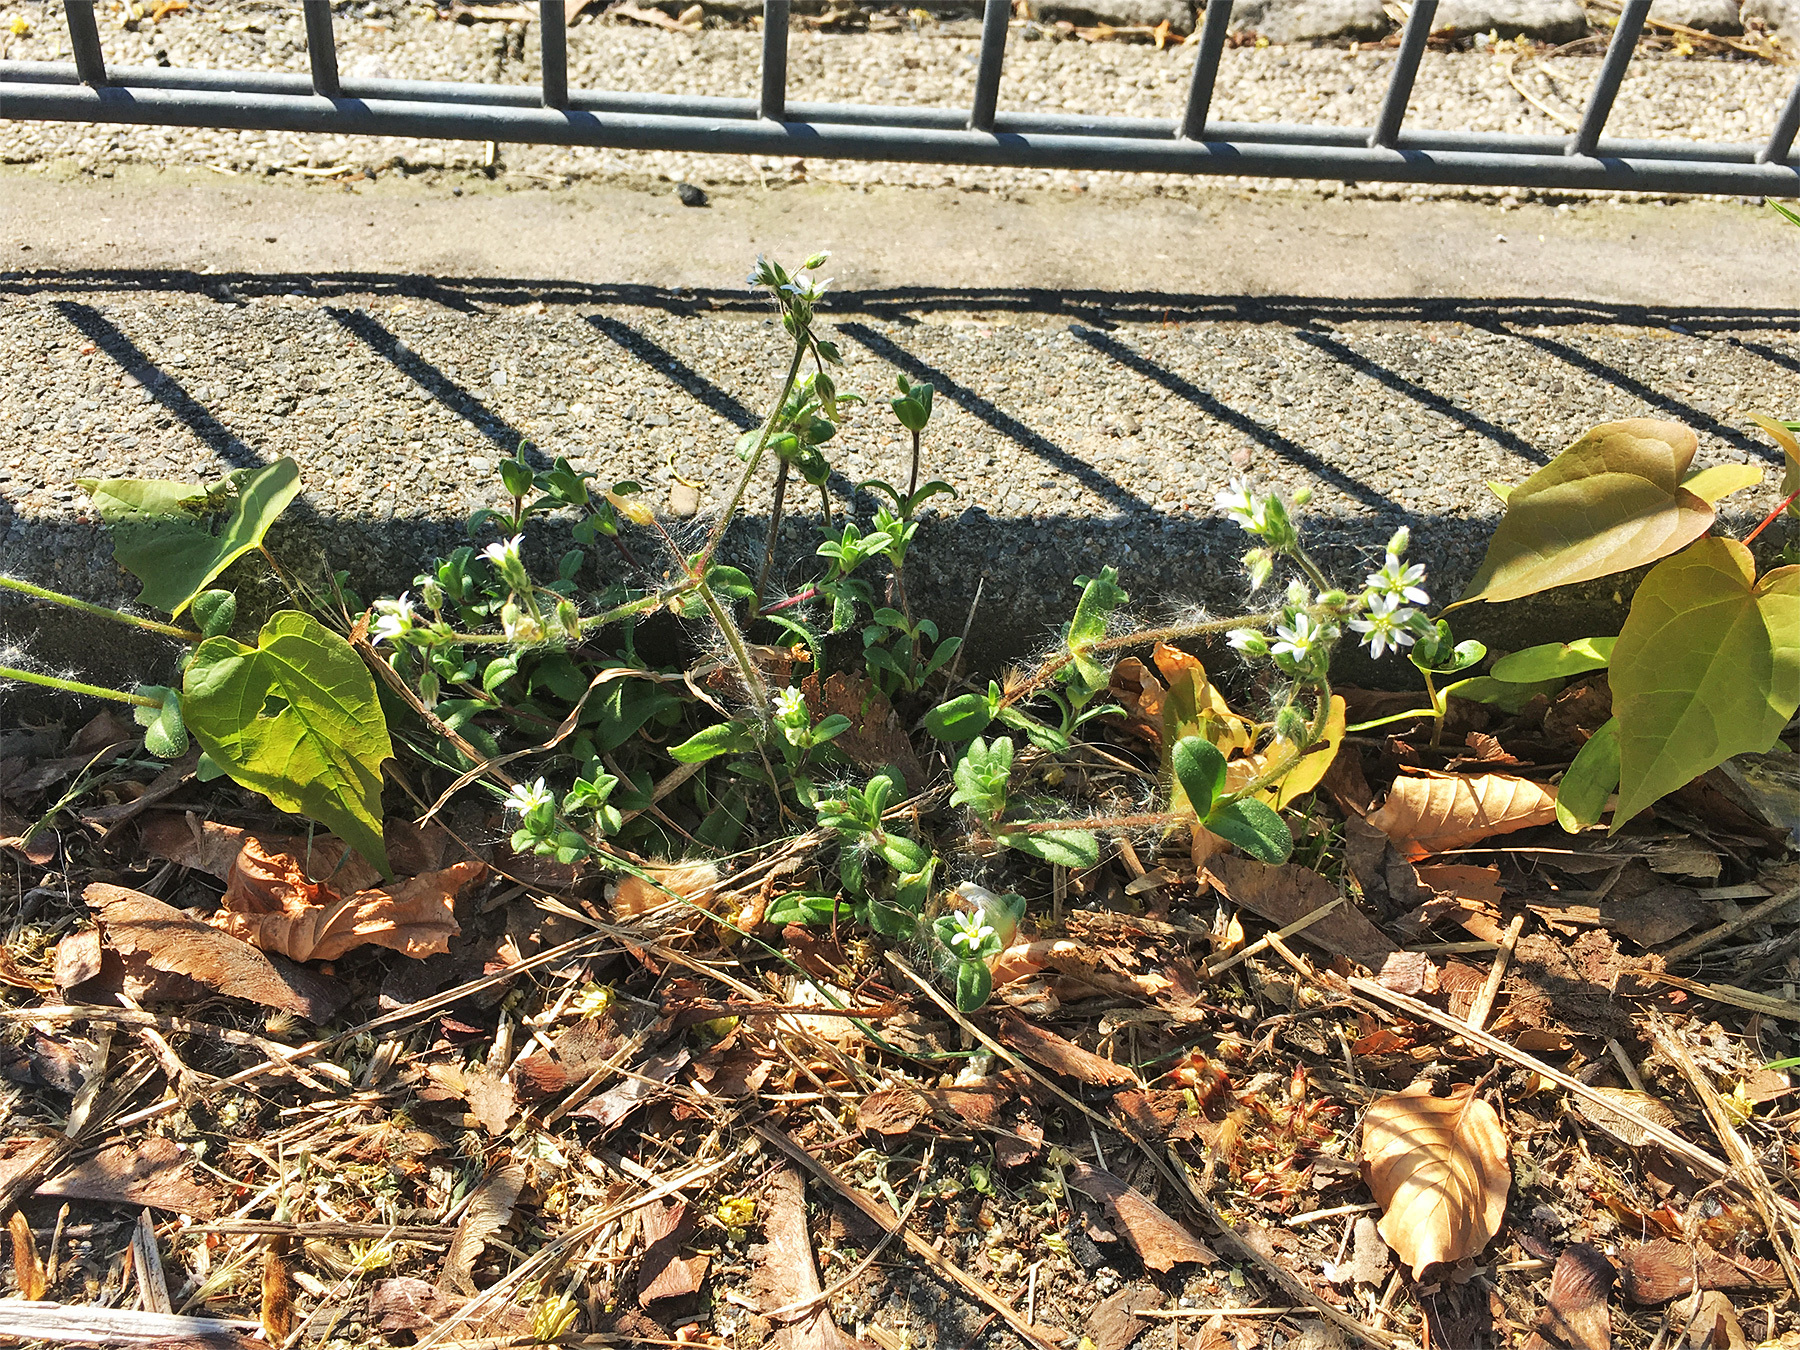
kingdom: Plantae
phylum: Tracheophyta
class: Magnoliopsida
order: Caryophyllales
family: Caryophyllaceae
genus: Cerastium
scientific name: Cerastium pumilum
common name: Dwarf mouse-ear
